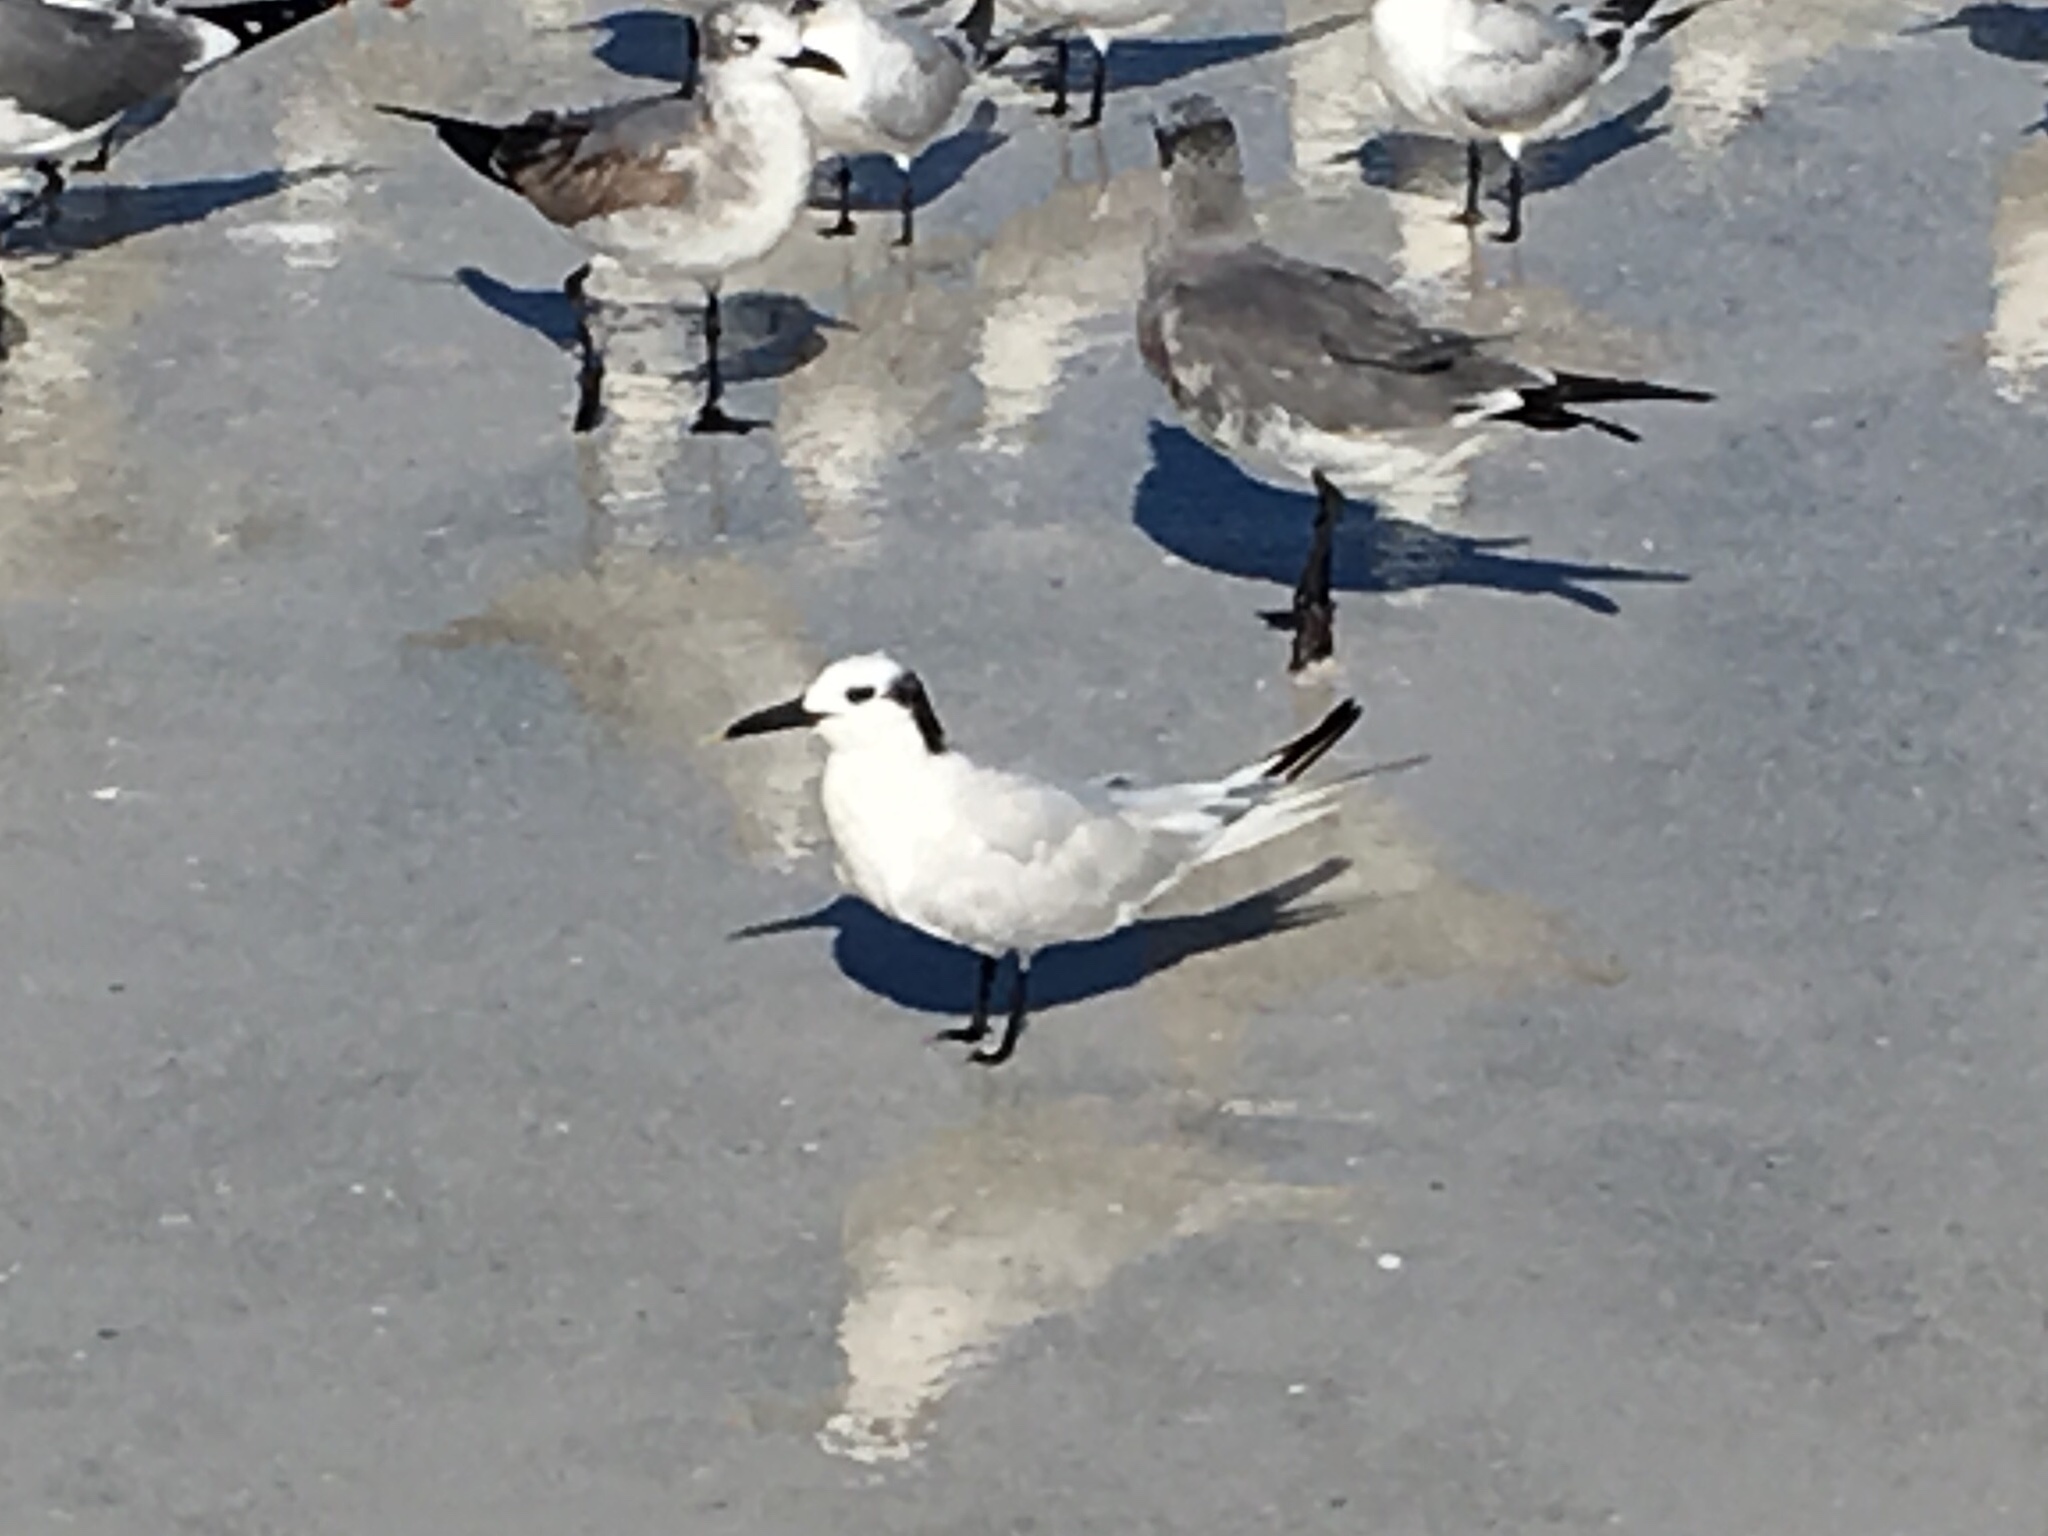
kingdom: Animalia
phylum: Chordata
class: Aves
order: Charadriiformes
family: Laridae
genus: Thalasseus
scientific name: Thalasseus sandvicensis
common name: Sandwich tern
